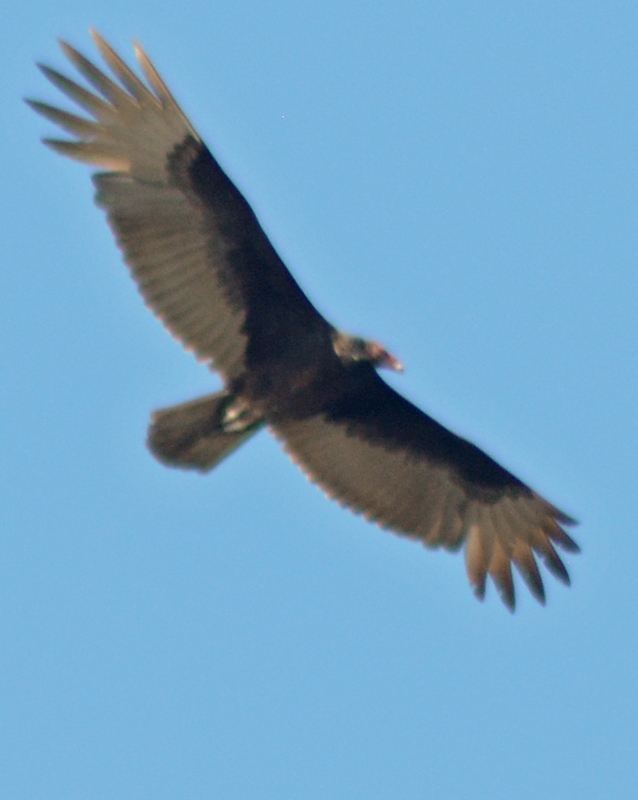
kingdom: Animalia
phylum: Chordata
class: Aves
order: Accipitriformes
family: Cathartidae
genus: Cathartes
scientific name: Cathartes aura
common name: Turkey vulture
